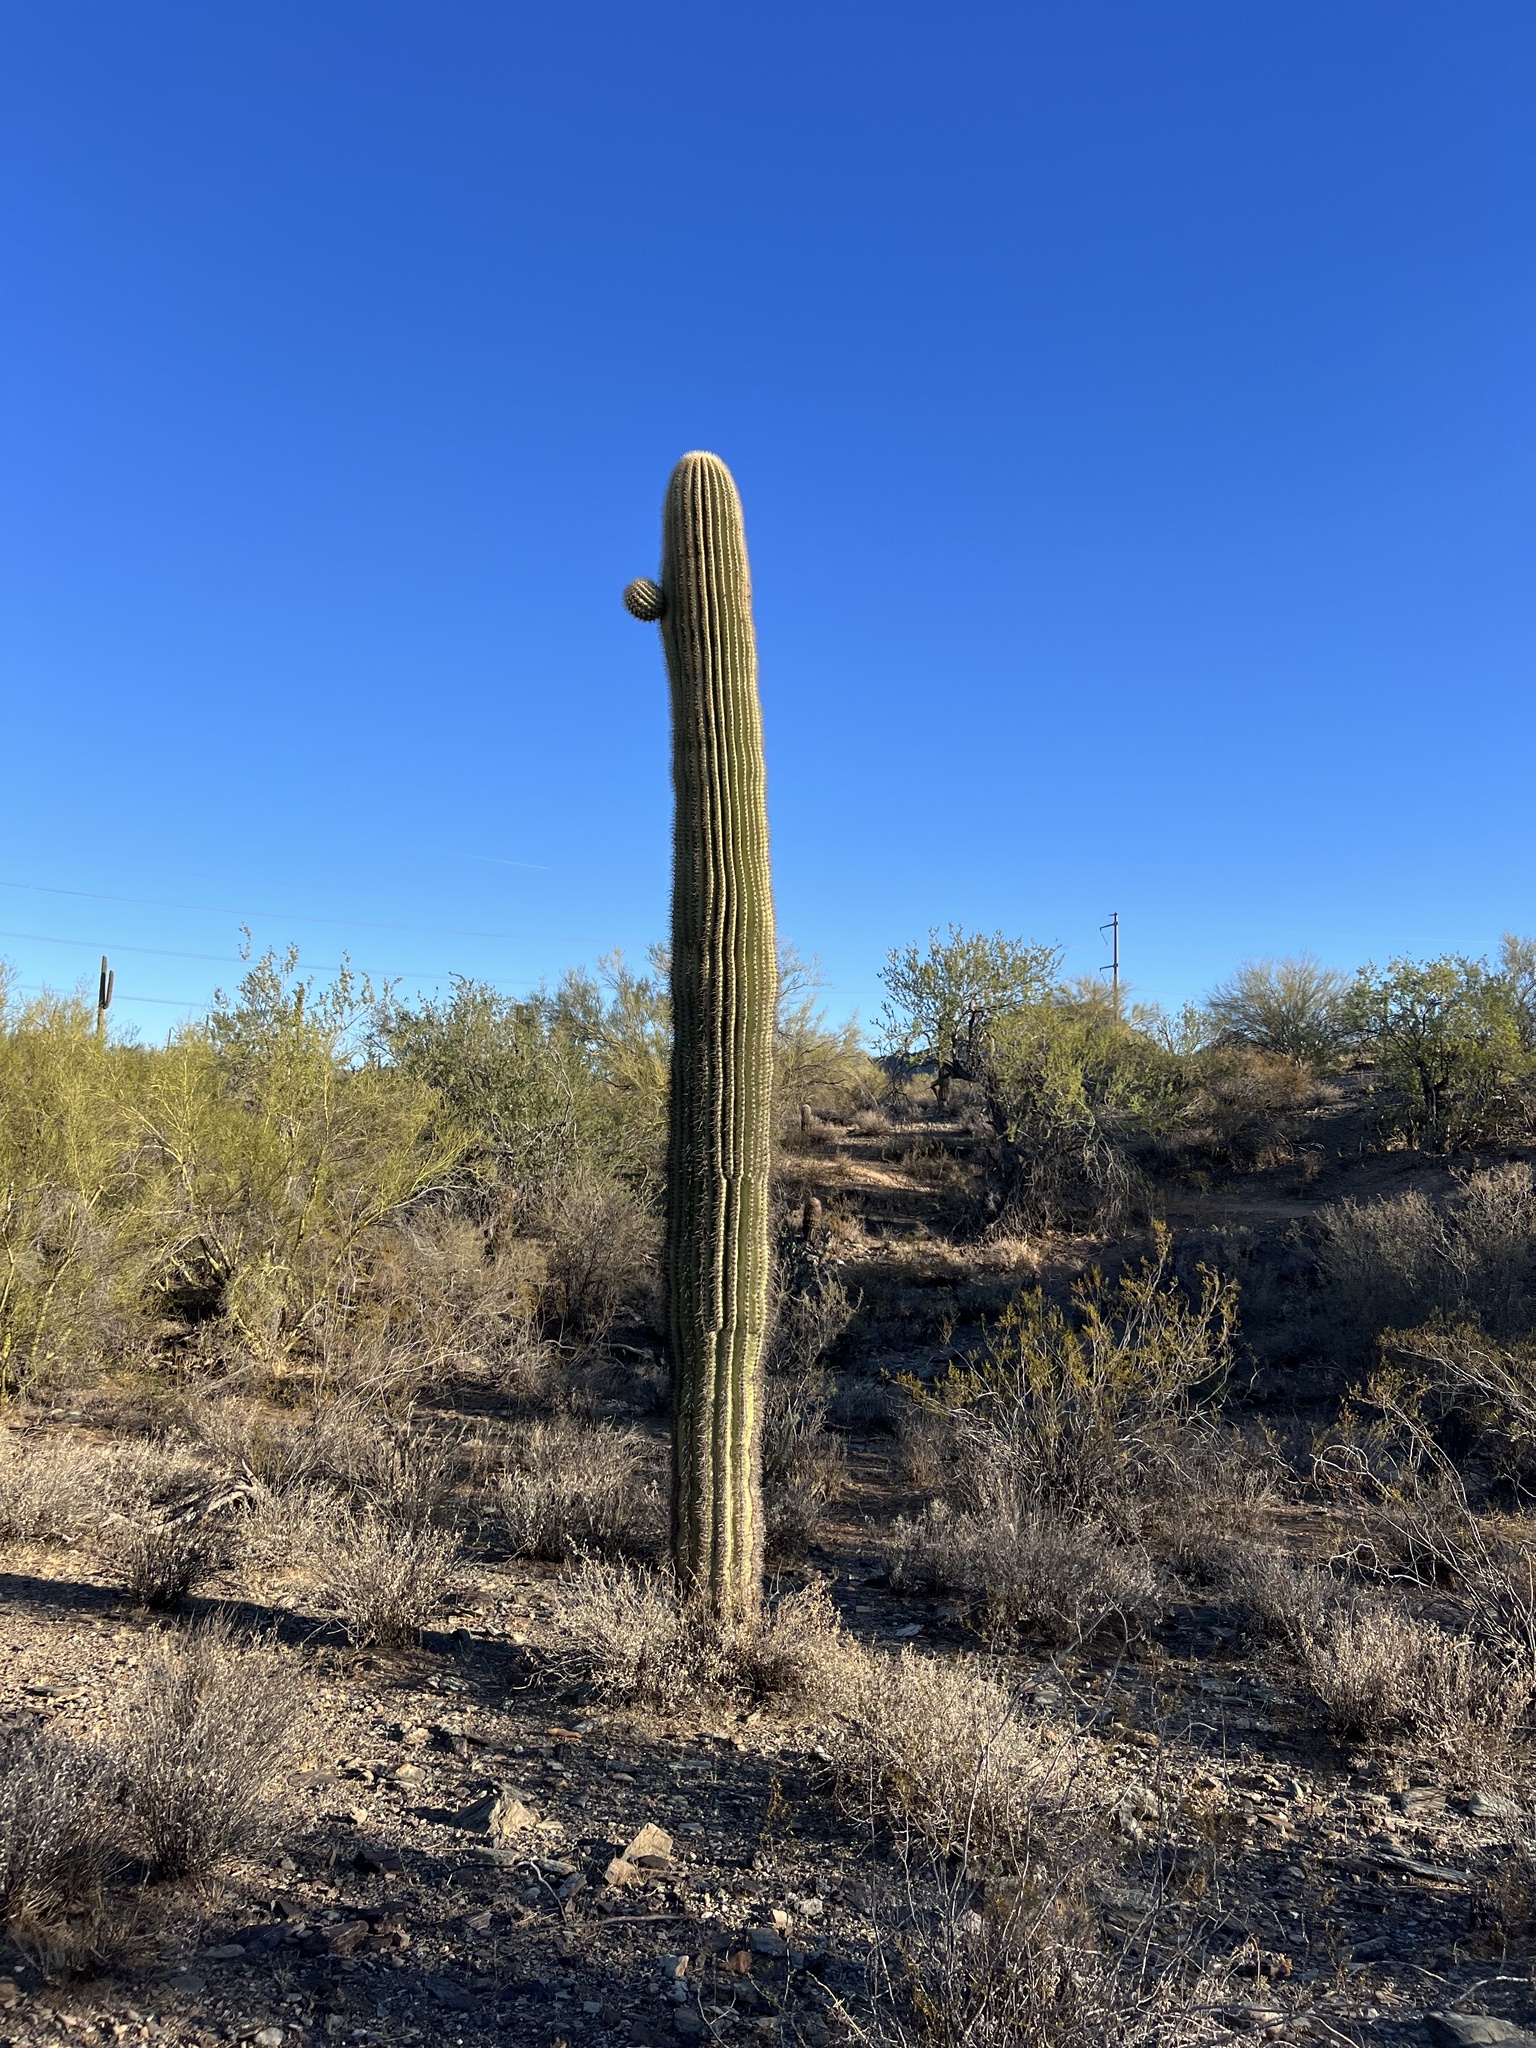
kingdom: Plantae
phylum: Tracheophyta
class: Magnoliopsida
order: Caryophyllales
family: Cactaceae
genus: Carnegiea
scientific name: Carnegiea gigantea
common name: Saguaro
